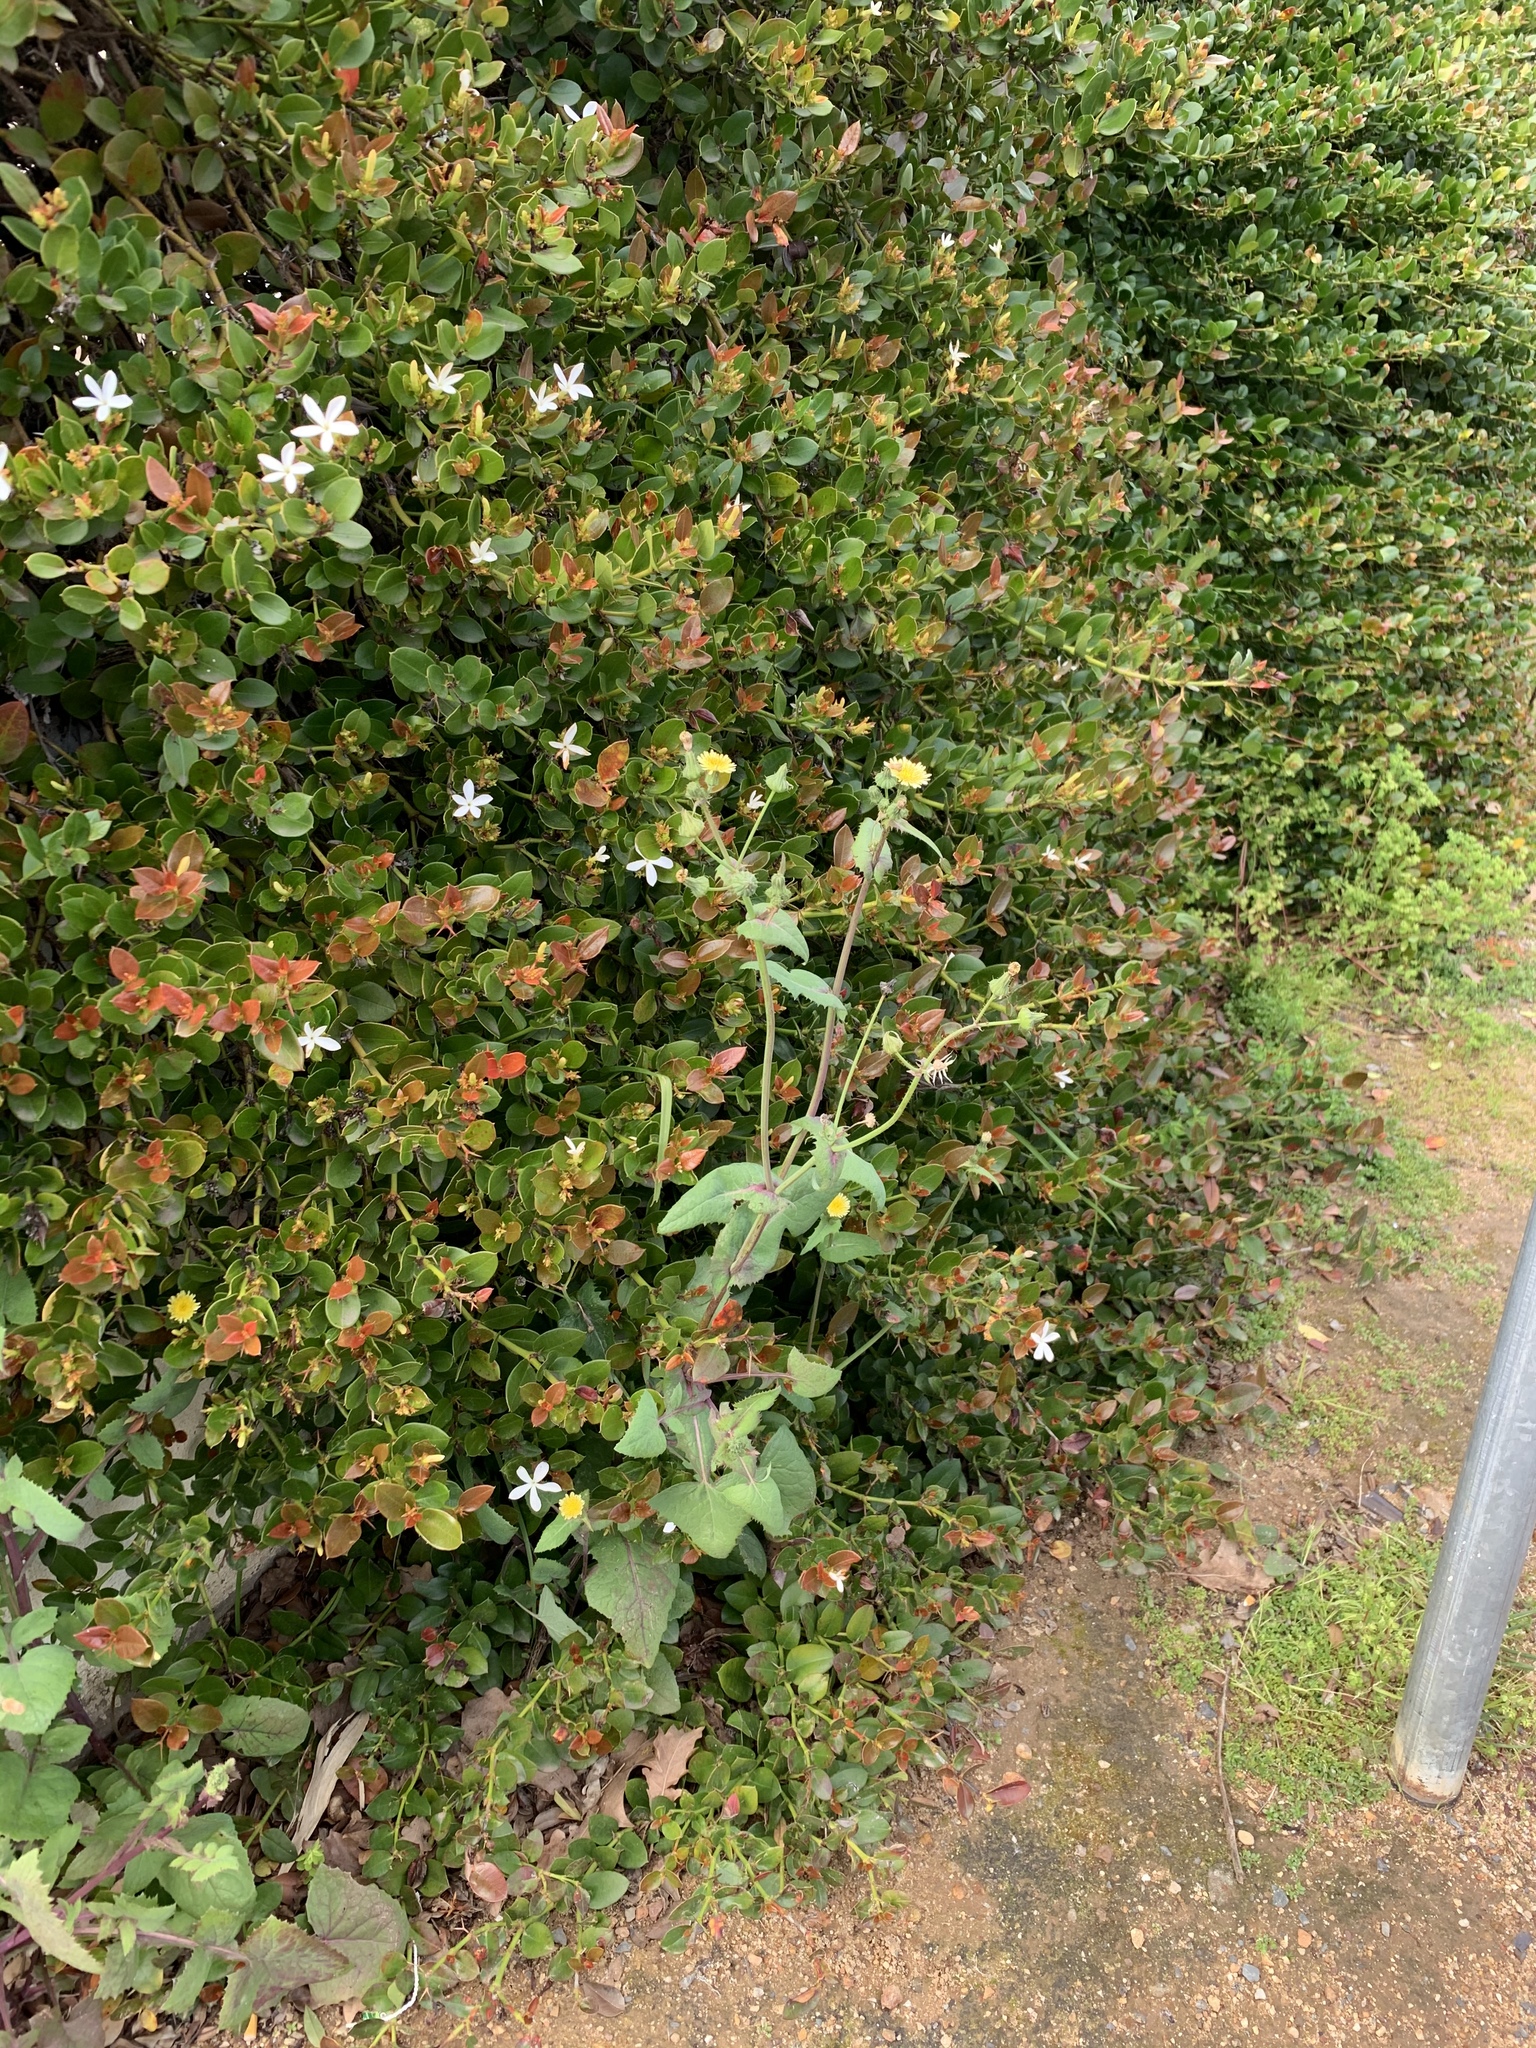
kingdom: Plantae
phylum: Tracheophyta
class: Magnoliopsida
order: Asterales
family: Asteraceae
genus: Sonchus
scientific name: Sonchus oleraceus
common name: Common sowthistle
